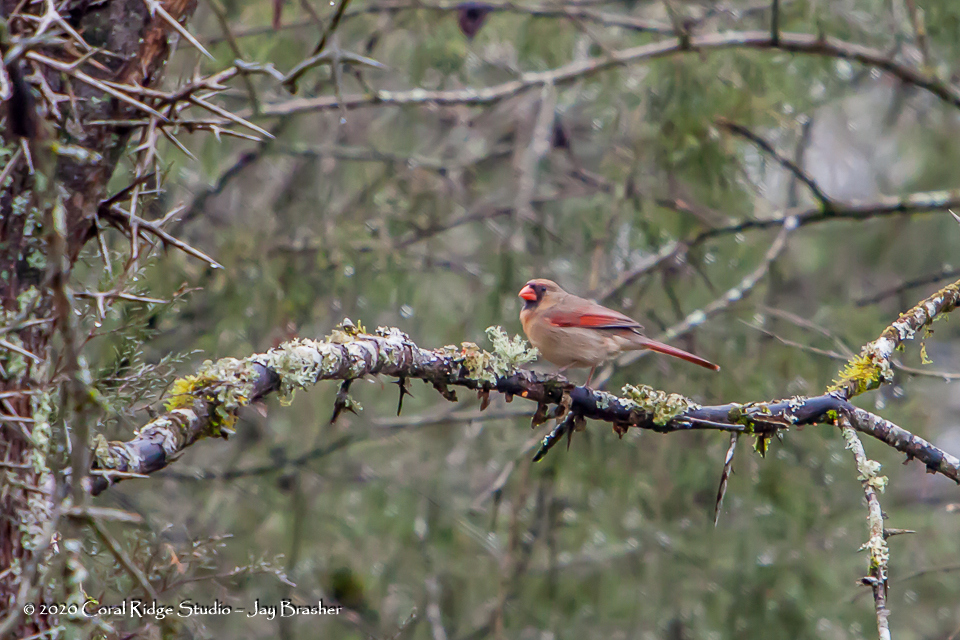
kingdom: Animalia
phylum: Chordata
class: Aves
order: Passeriformes
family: Cardinalidae
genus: Cardinalis
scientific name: Cardinalis cardinalis
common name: Northern cardinal
